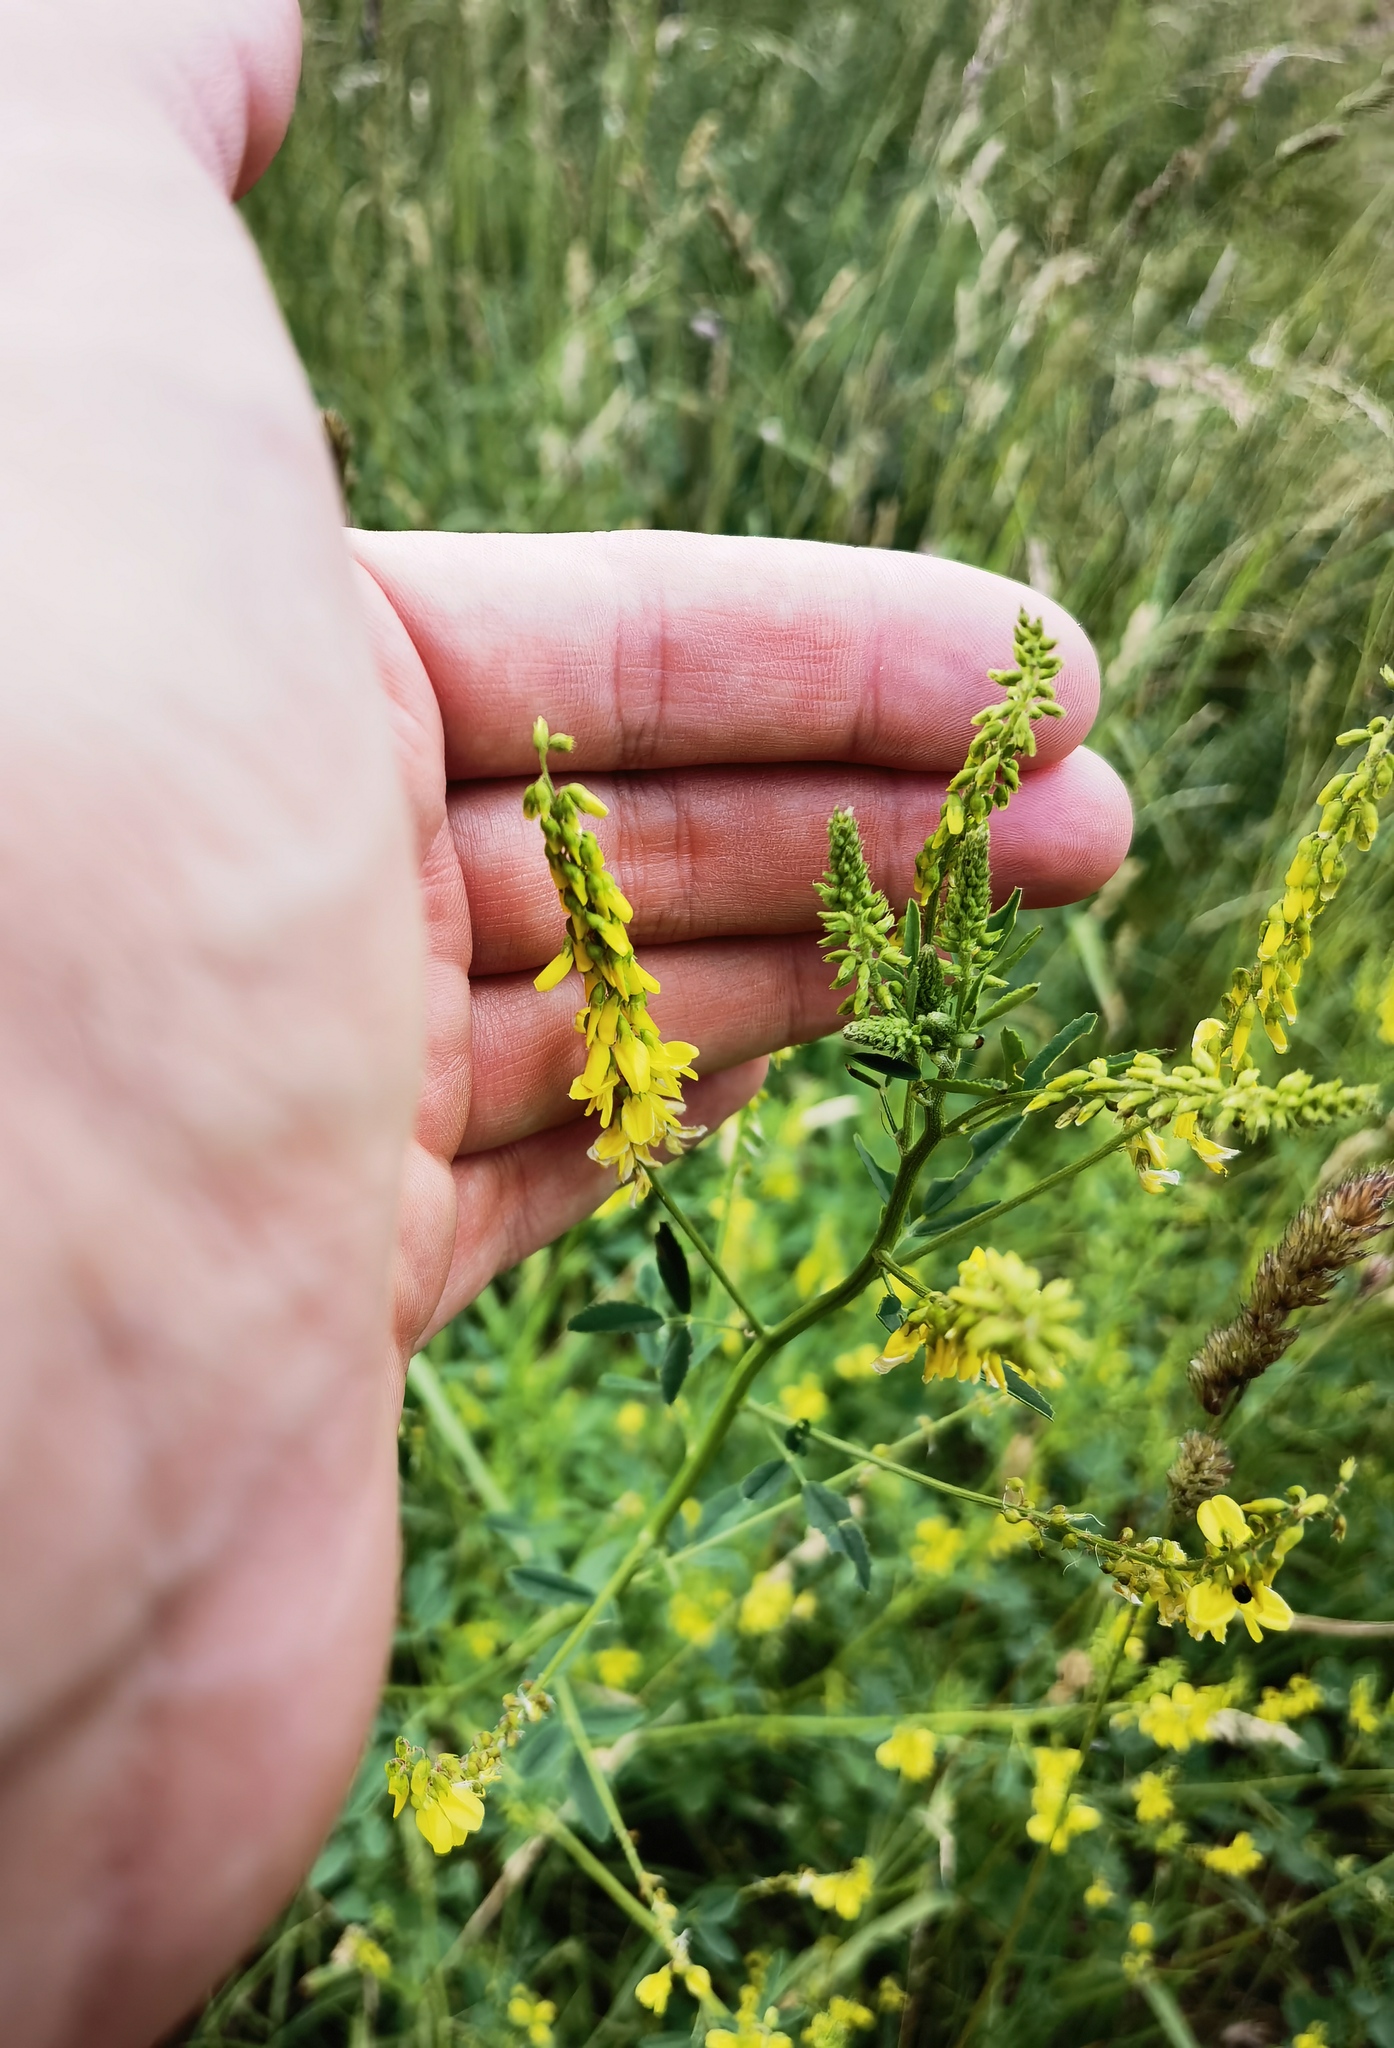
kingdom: Plantae
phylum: Tracheophyta
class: Magnoliopsida
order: Fabales
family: Fabaceae
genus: Melilotus
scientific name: Melilotus officinalis
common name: Sweetclover
